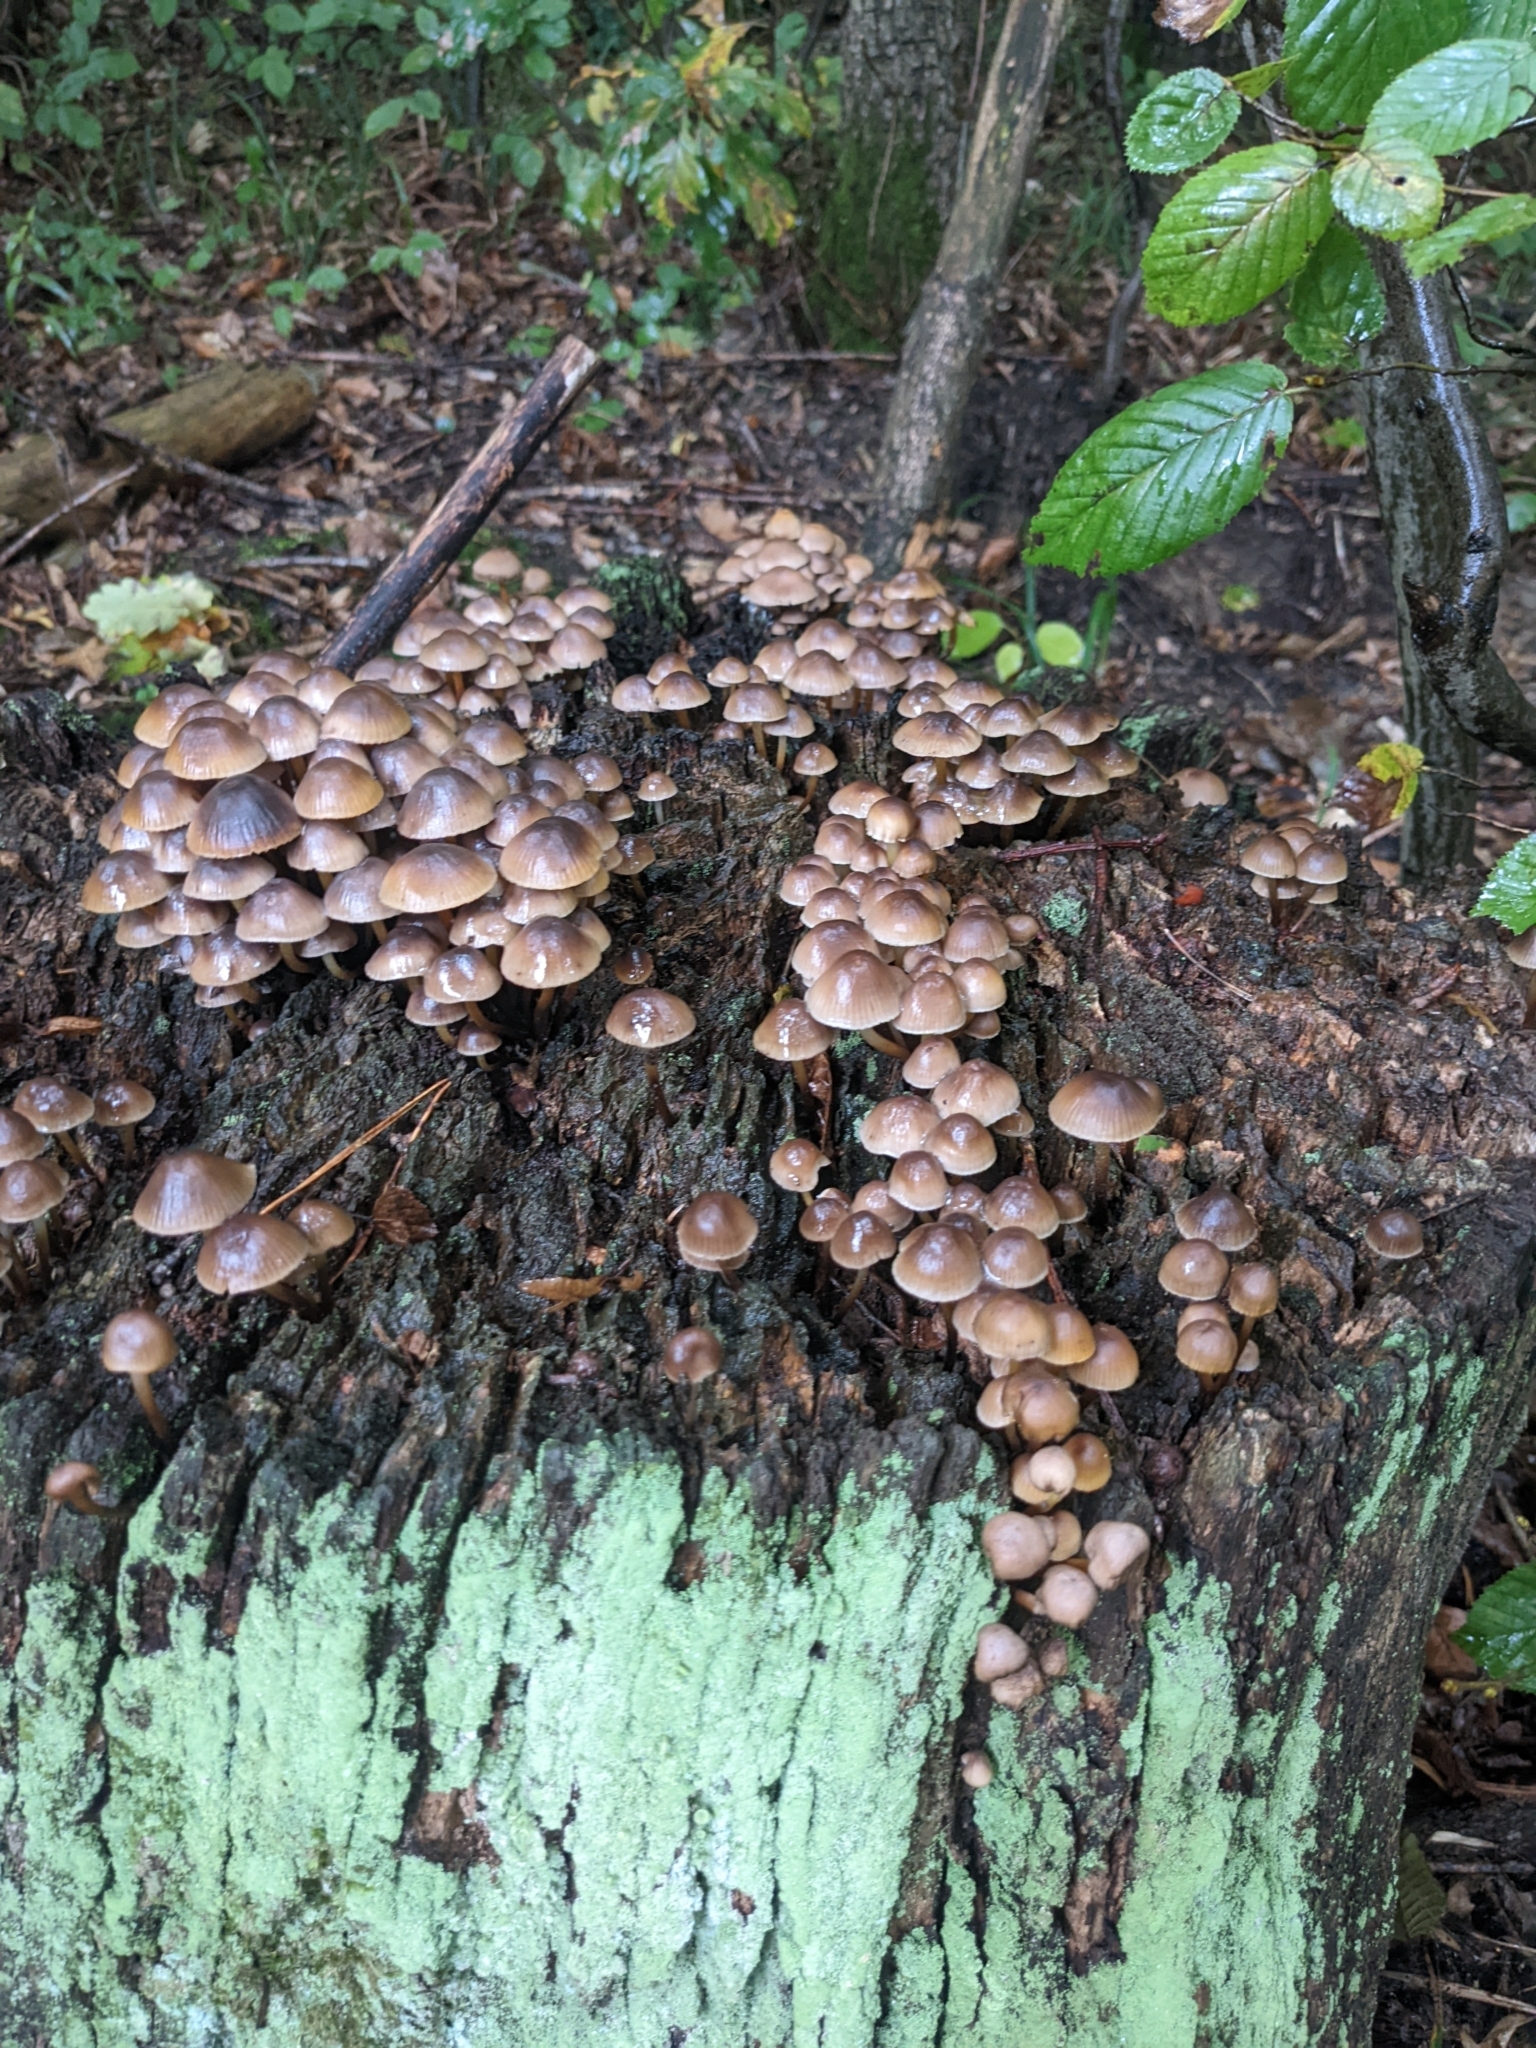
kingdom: Fungi
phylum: Basidiomycota
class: Agaricomycetes
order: Agaricales
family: Mycenaceae
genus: Mycena
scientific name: Mycena
